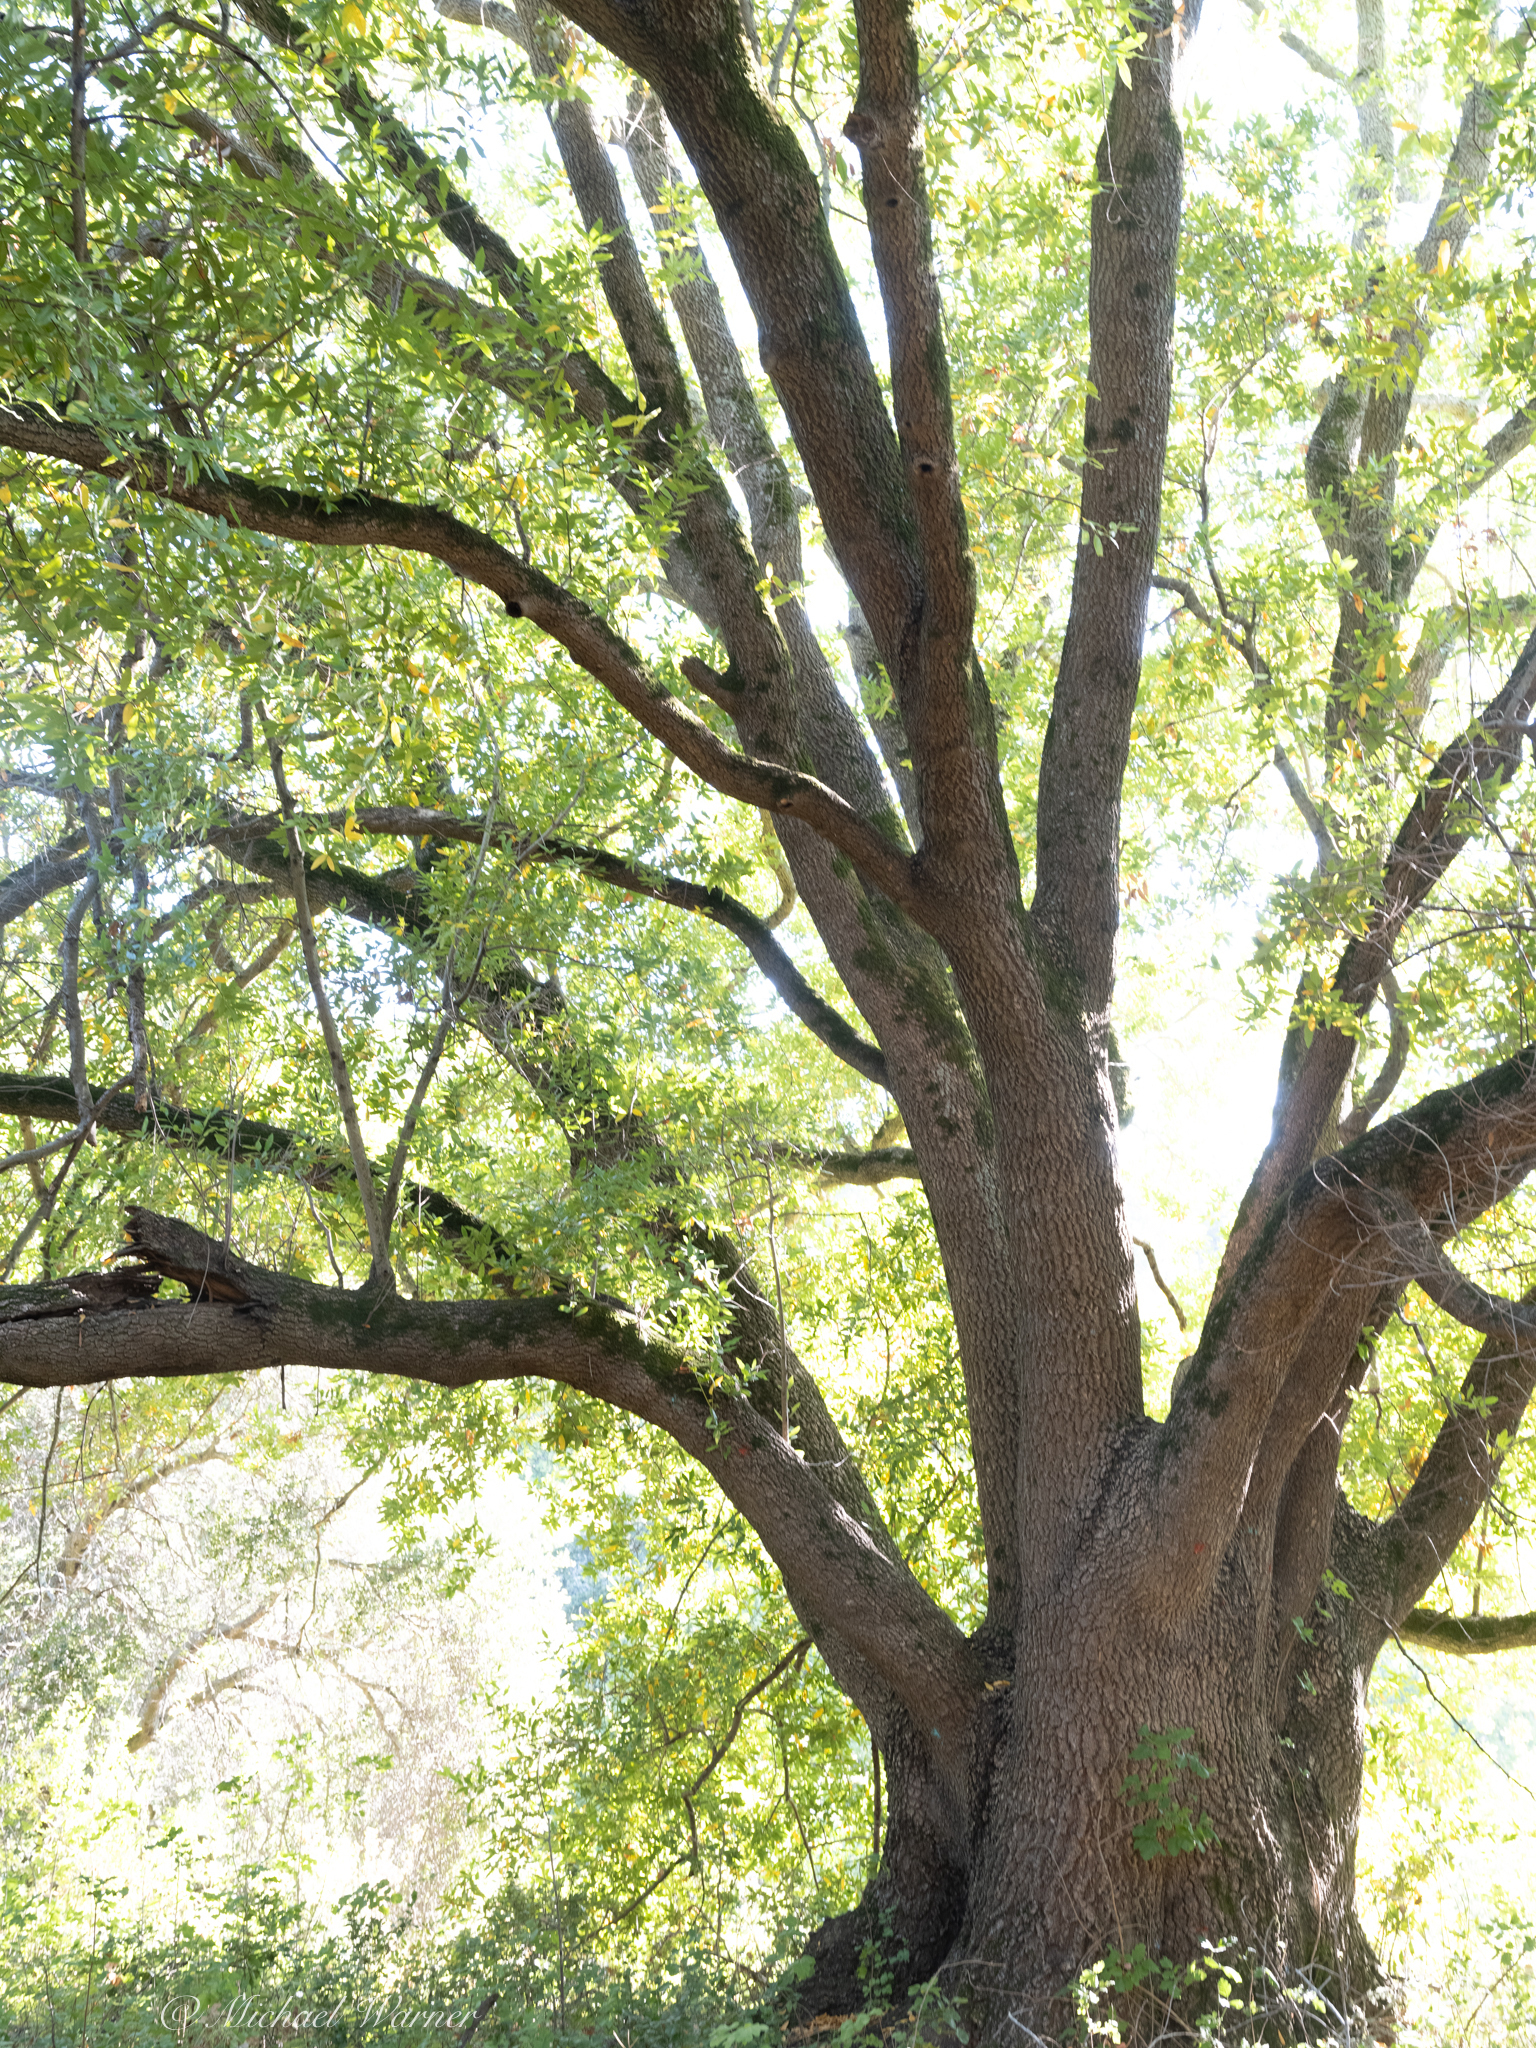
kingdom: Plantae
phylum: Tracheophyta
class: Magnoliopsida
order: Laurales
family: Lauraceae
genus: Umbellularia
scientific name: Umbellularia californica
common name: California bay
